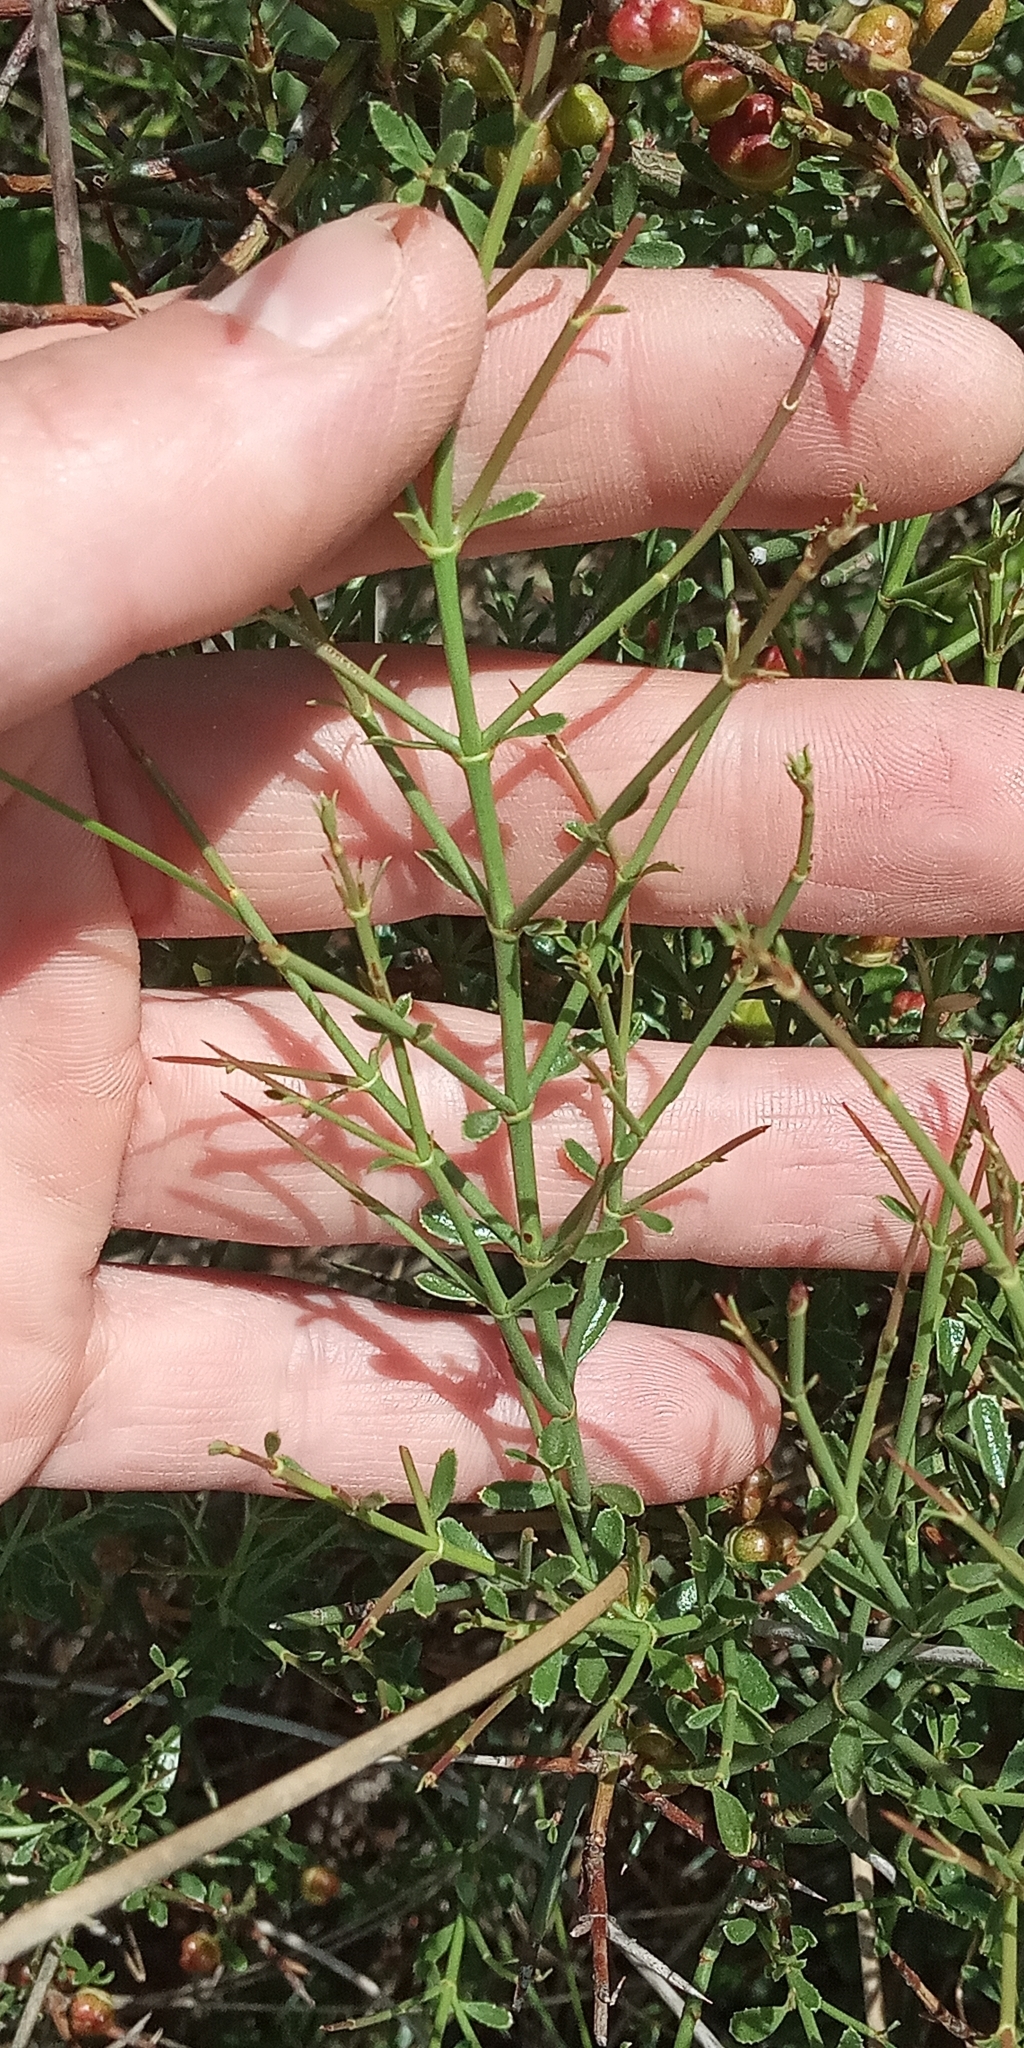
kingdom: Plantae
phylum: Tracheophyta
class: Magnoliopsida
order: Rosales
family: Rhamnaceae
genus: Discaria
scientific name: Discaria americana
